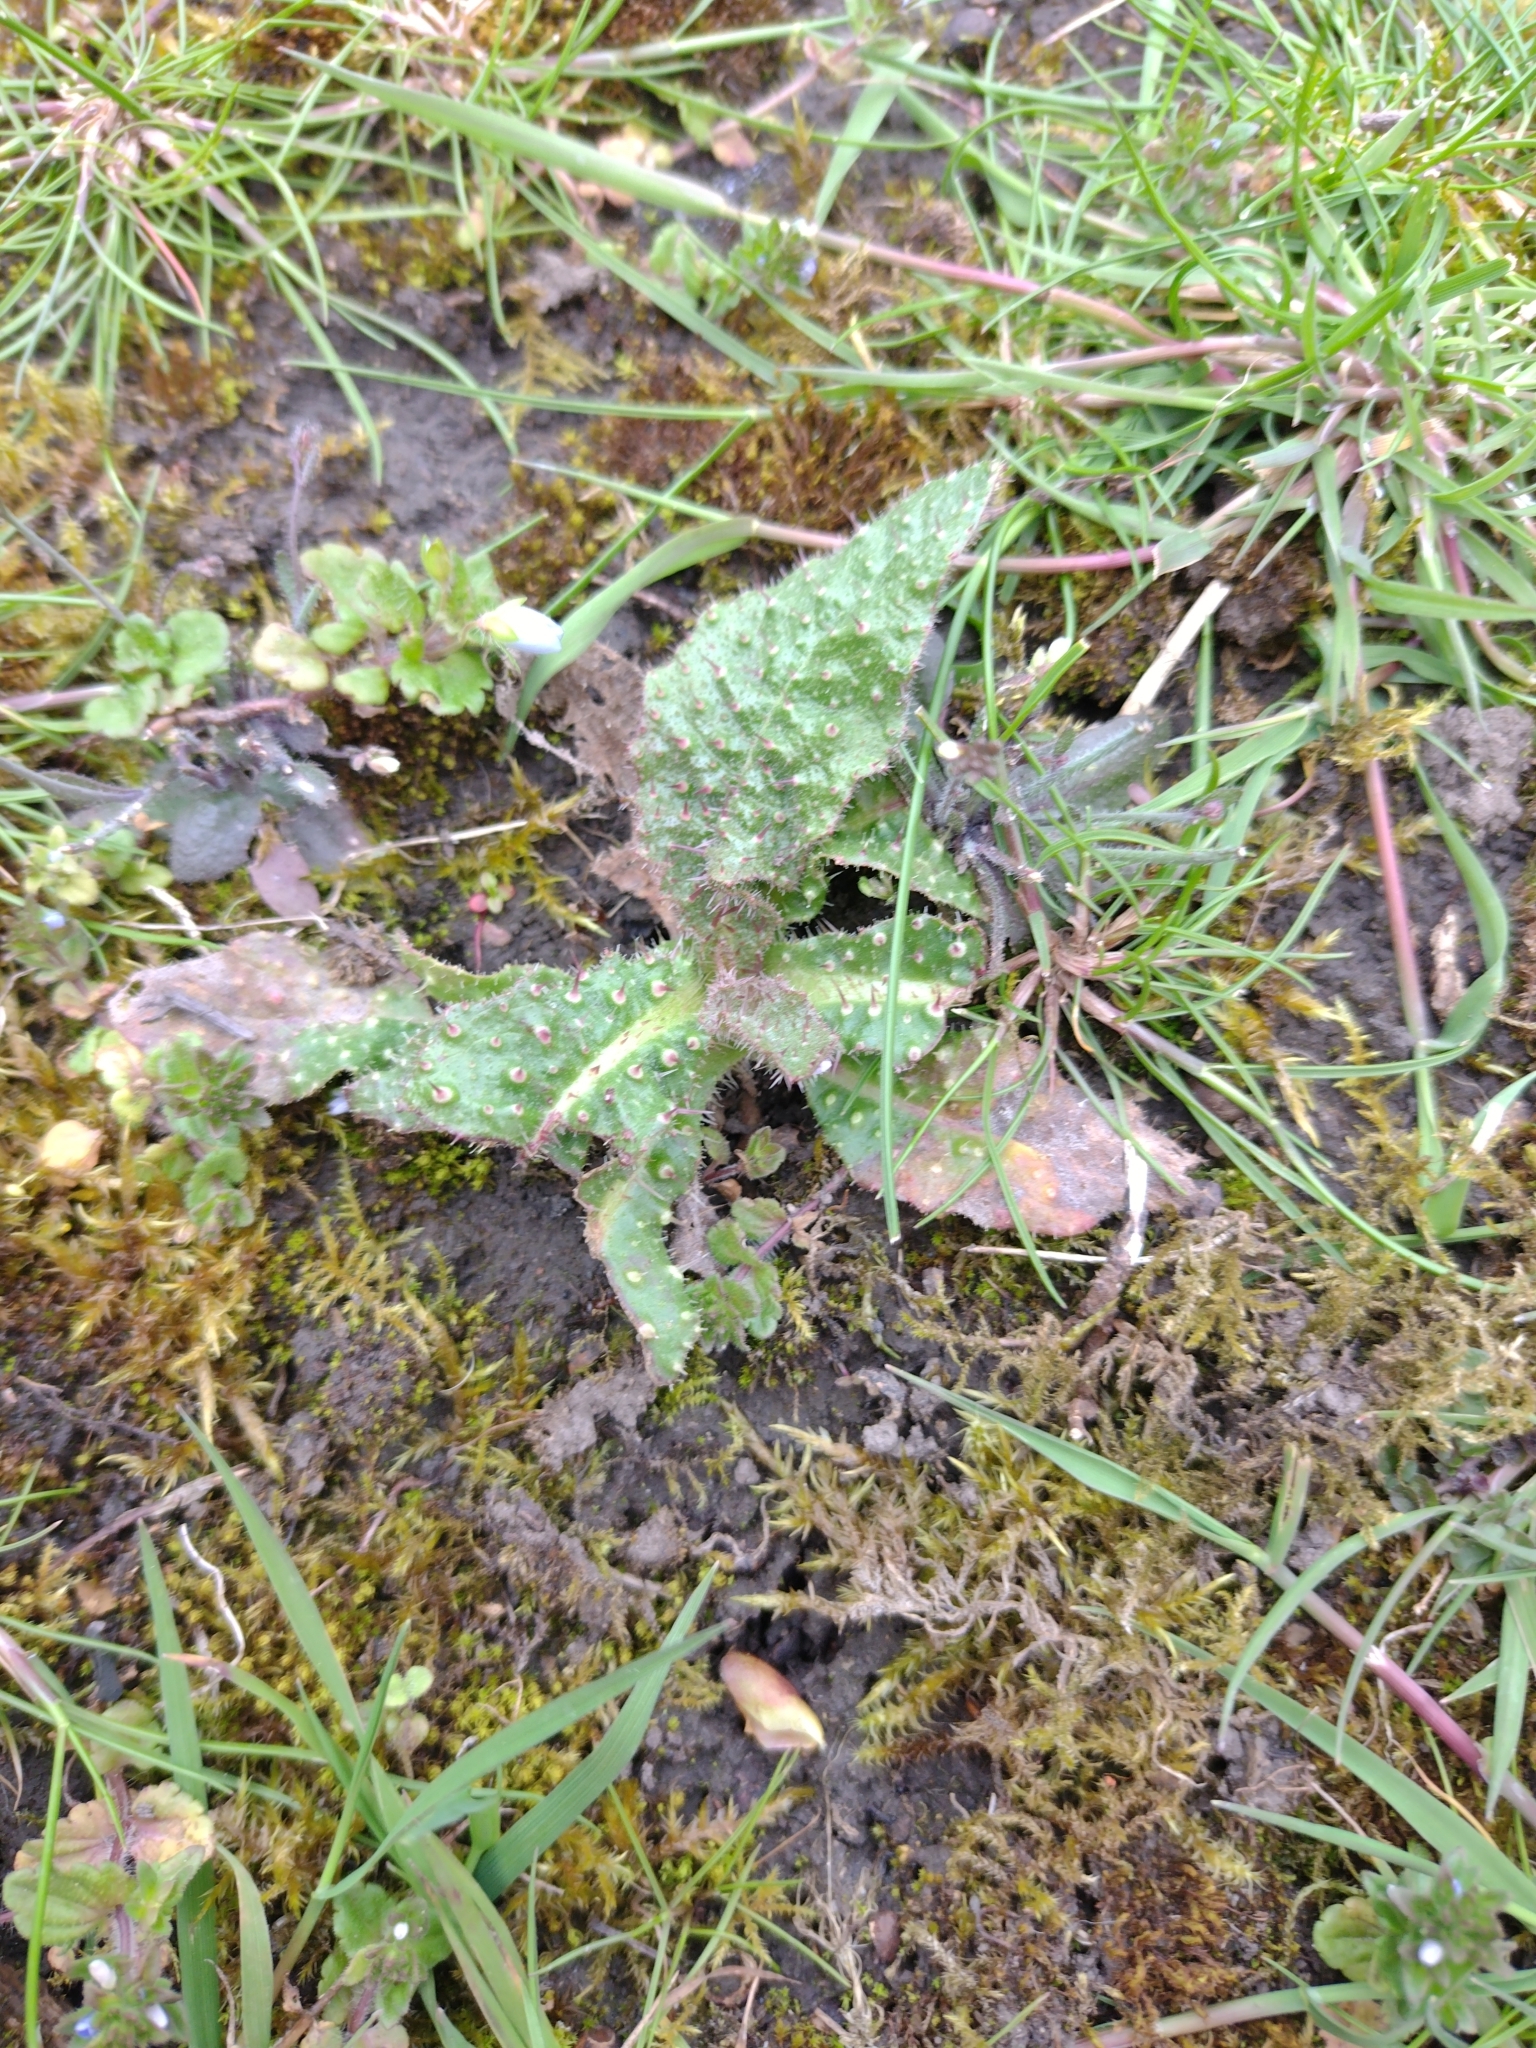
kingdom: Plantae
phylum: Tracheophyta
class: Magnoliopsida
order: Asterales
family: Asteraceae
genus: Helminthotheca
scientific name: Helminthotheca echioides
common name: Ox-tongue
